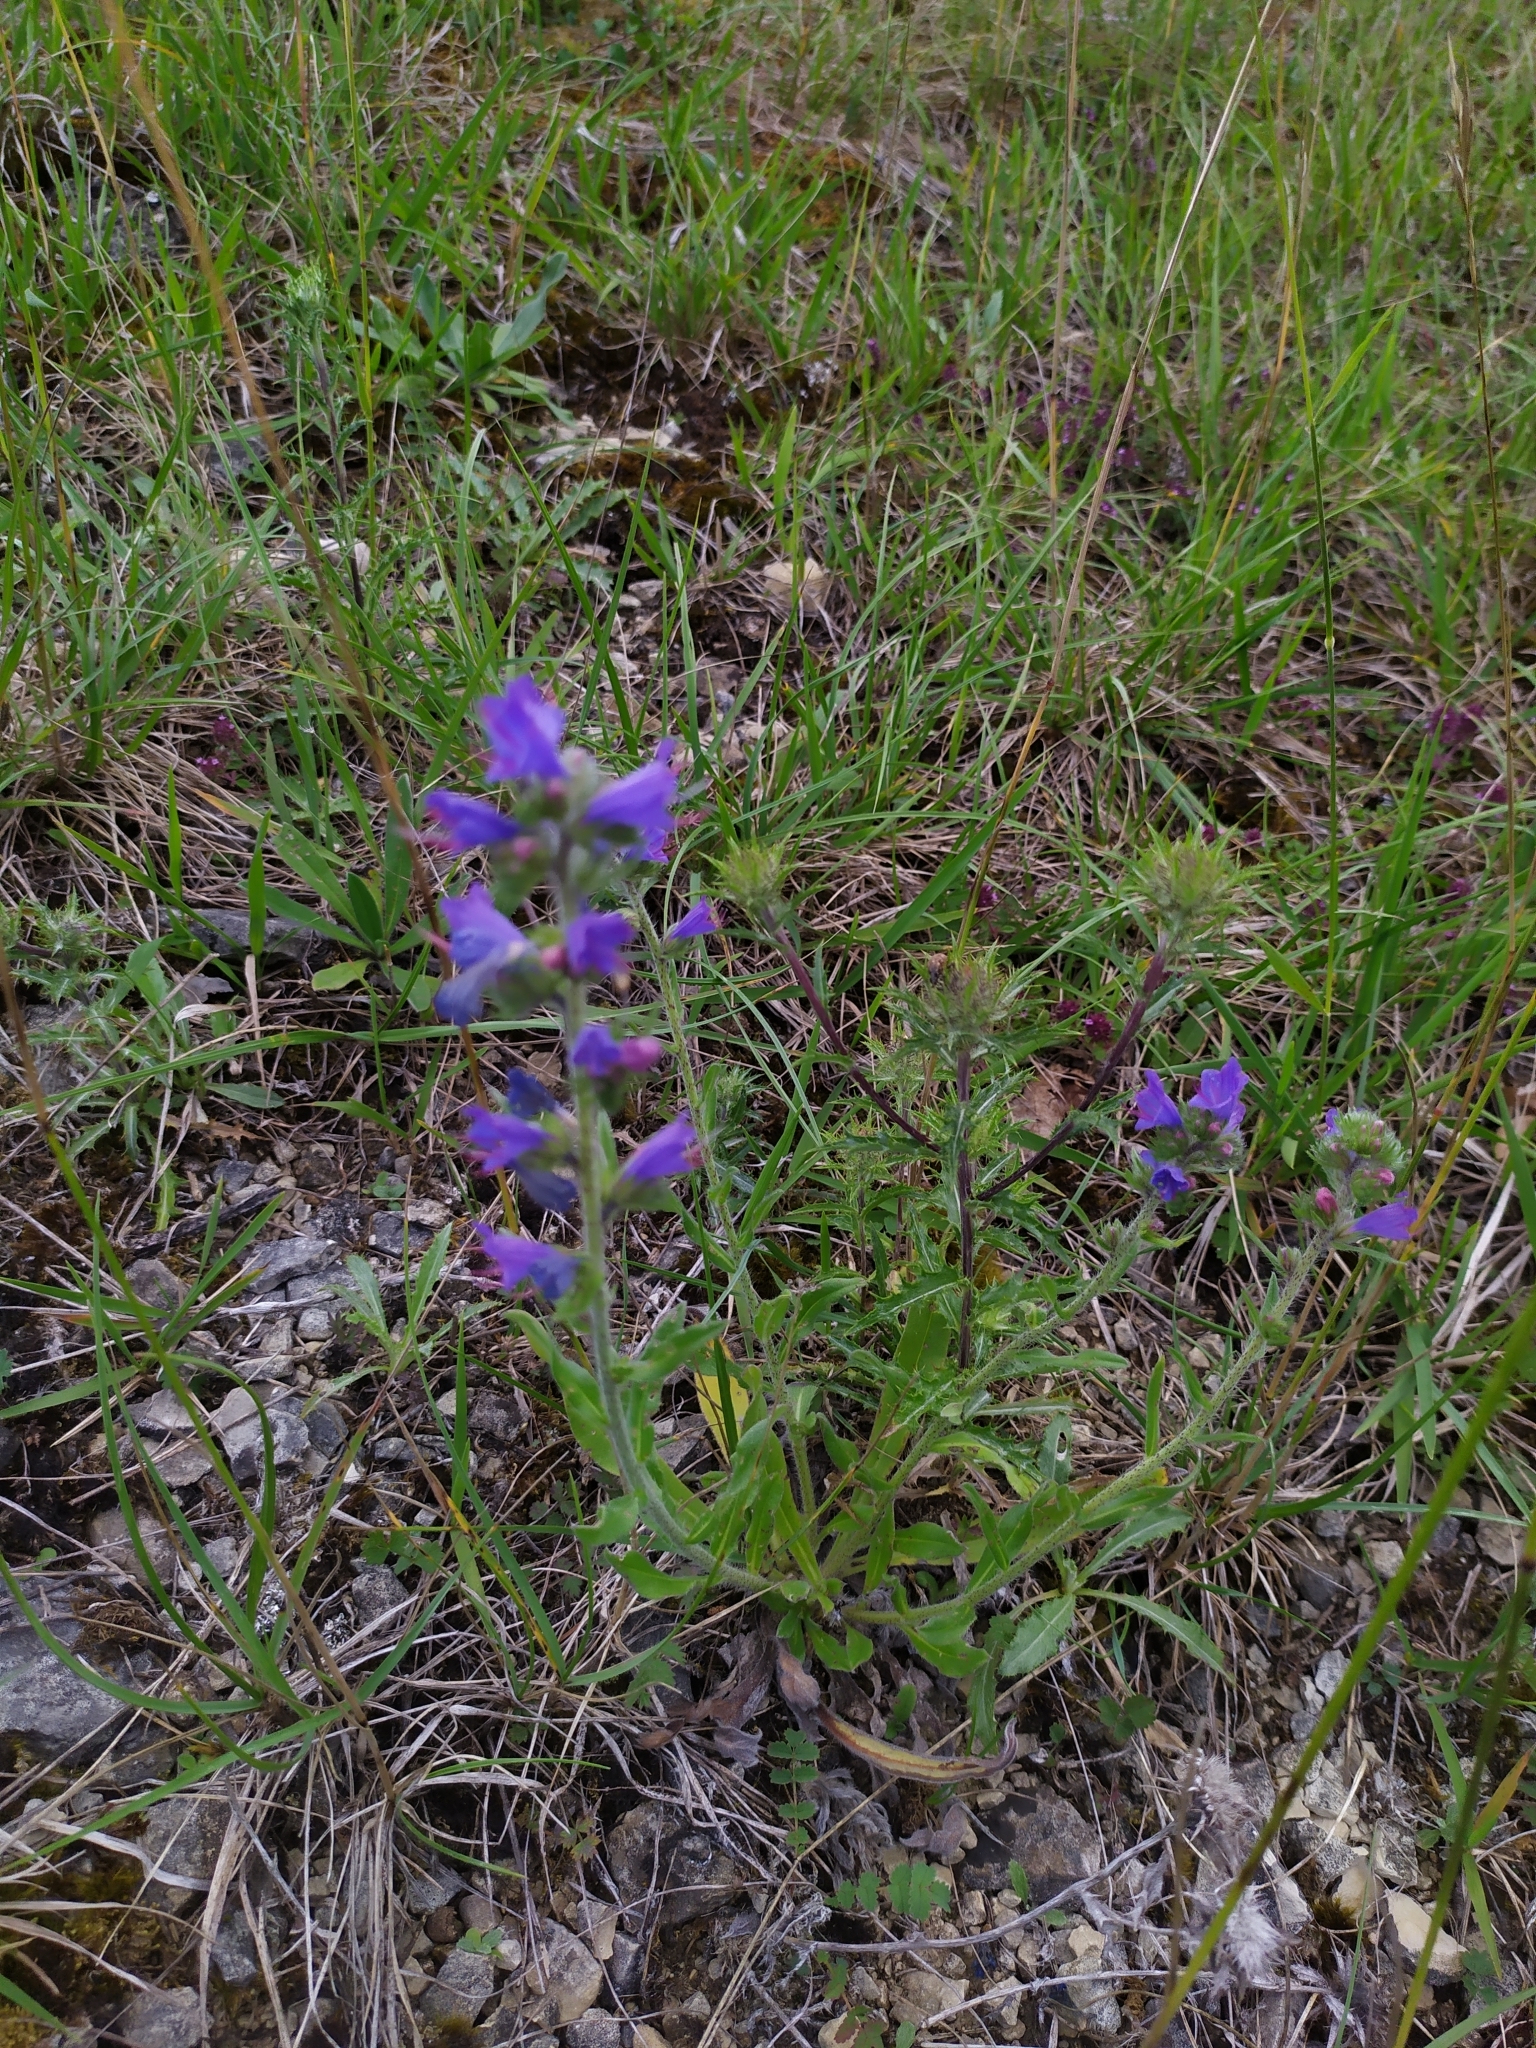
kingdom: Plantae
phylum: Tracheophyta
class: Magnoliopsida
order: Boraginales
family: Boraginaceae
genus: Echium
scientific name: Echium vulgare
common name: Common viper's bugloss
